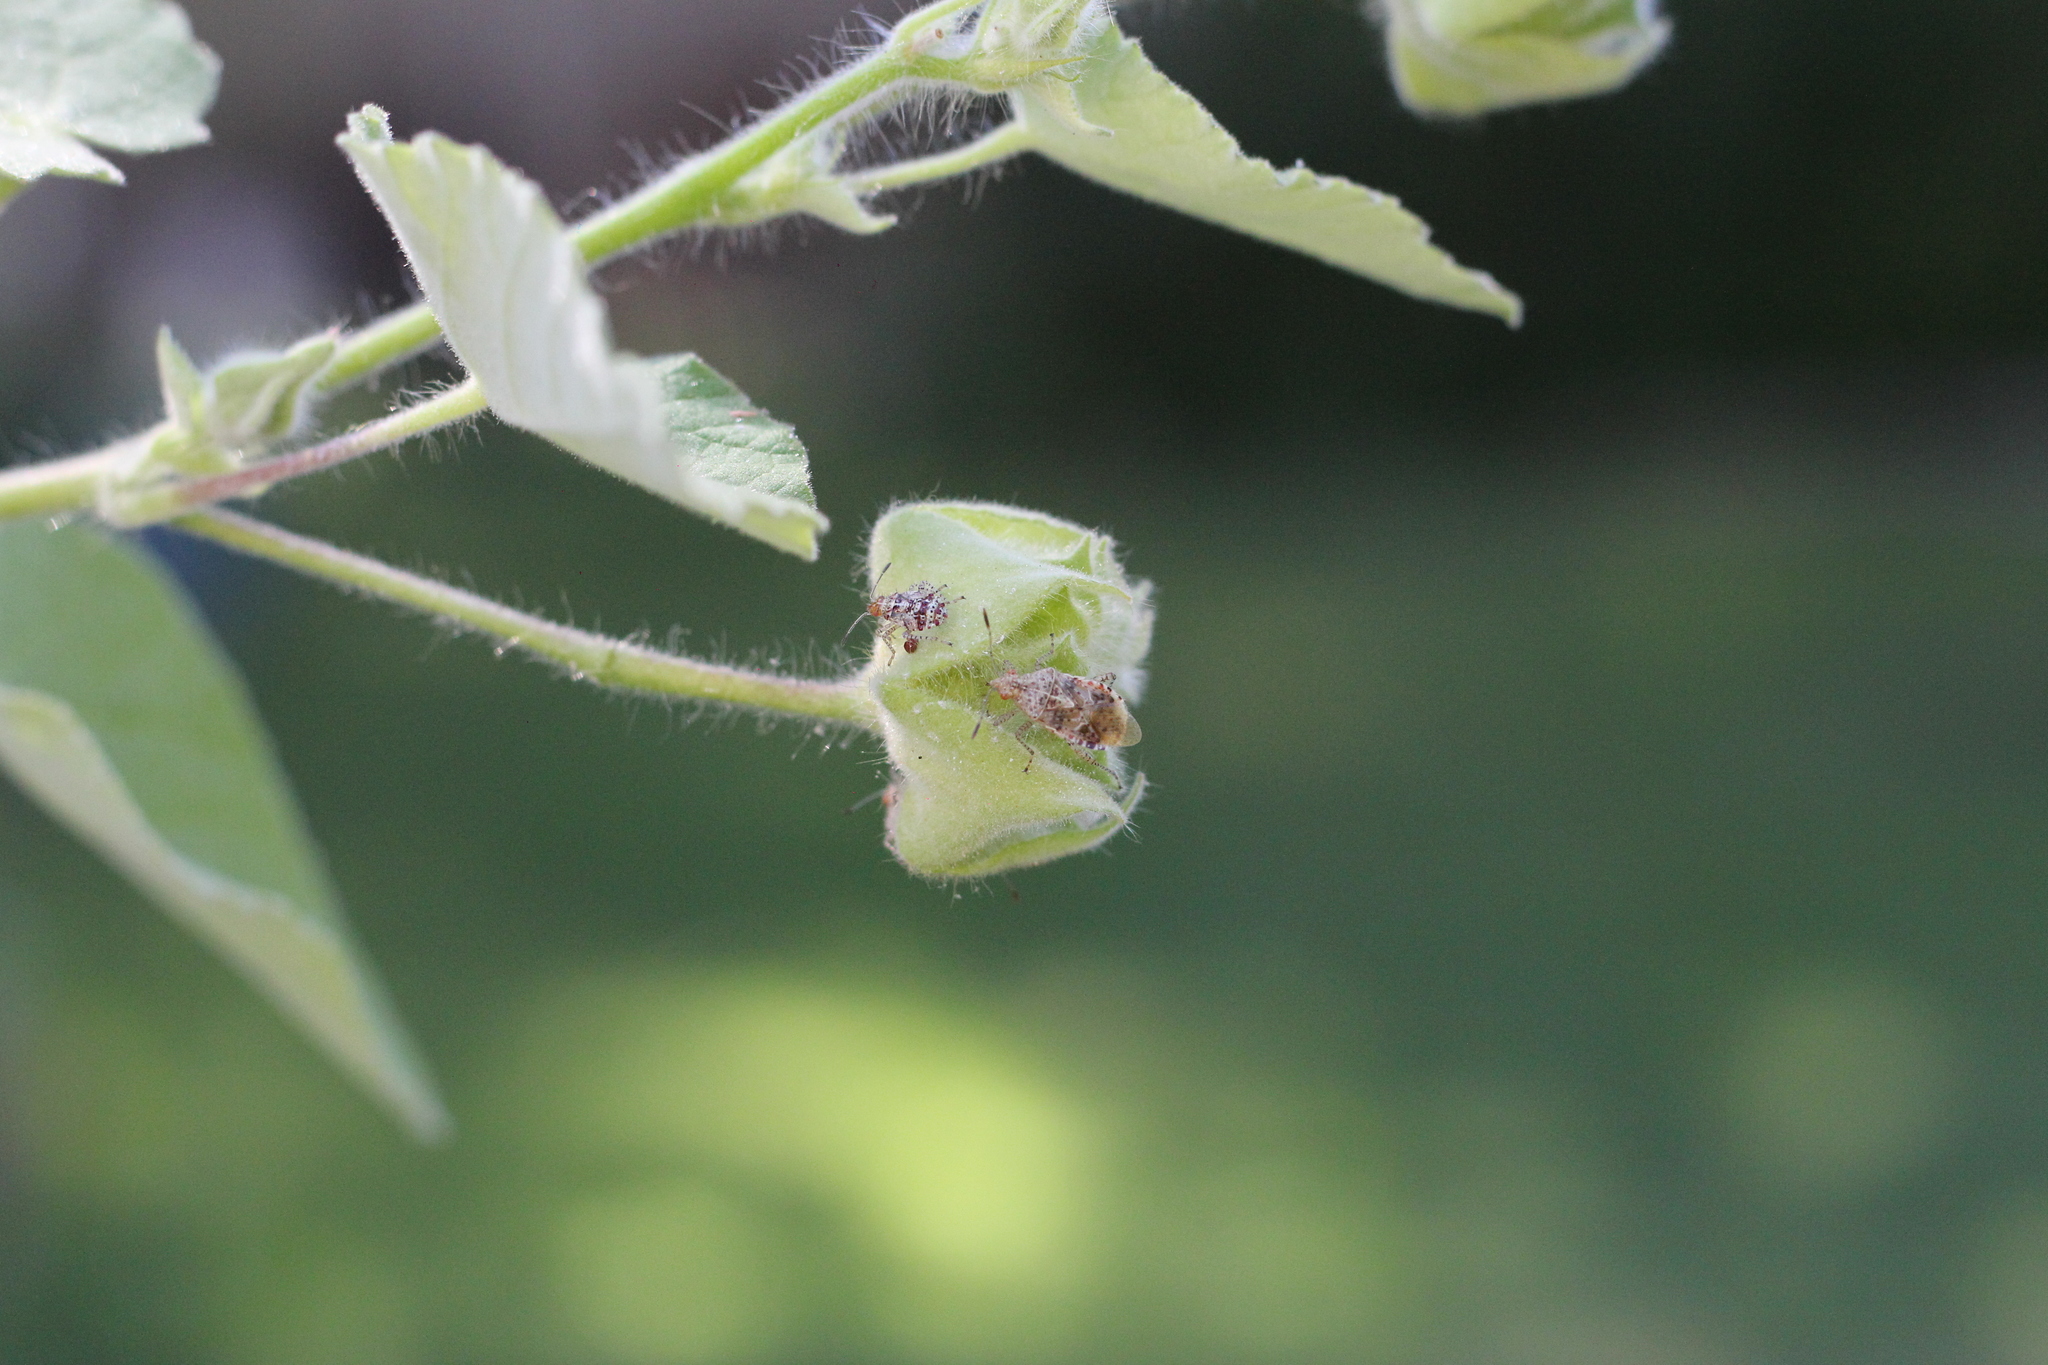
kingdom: Animalia
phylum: Arthropoda
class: Insecta
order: Hemiptera
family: Rhopalidae
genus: Niesthrea
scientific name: Niesthrea
